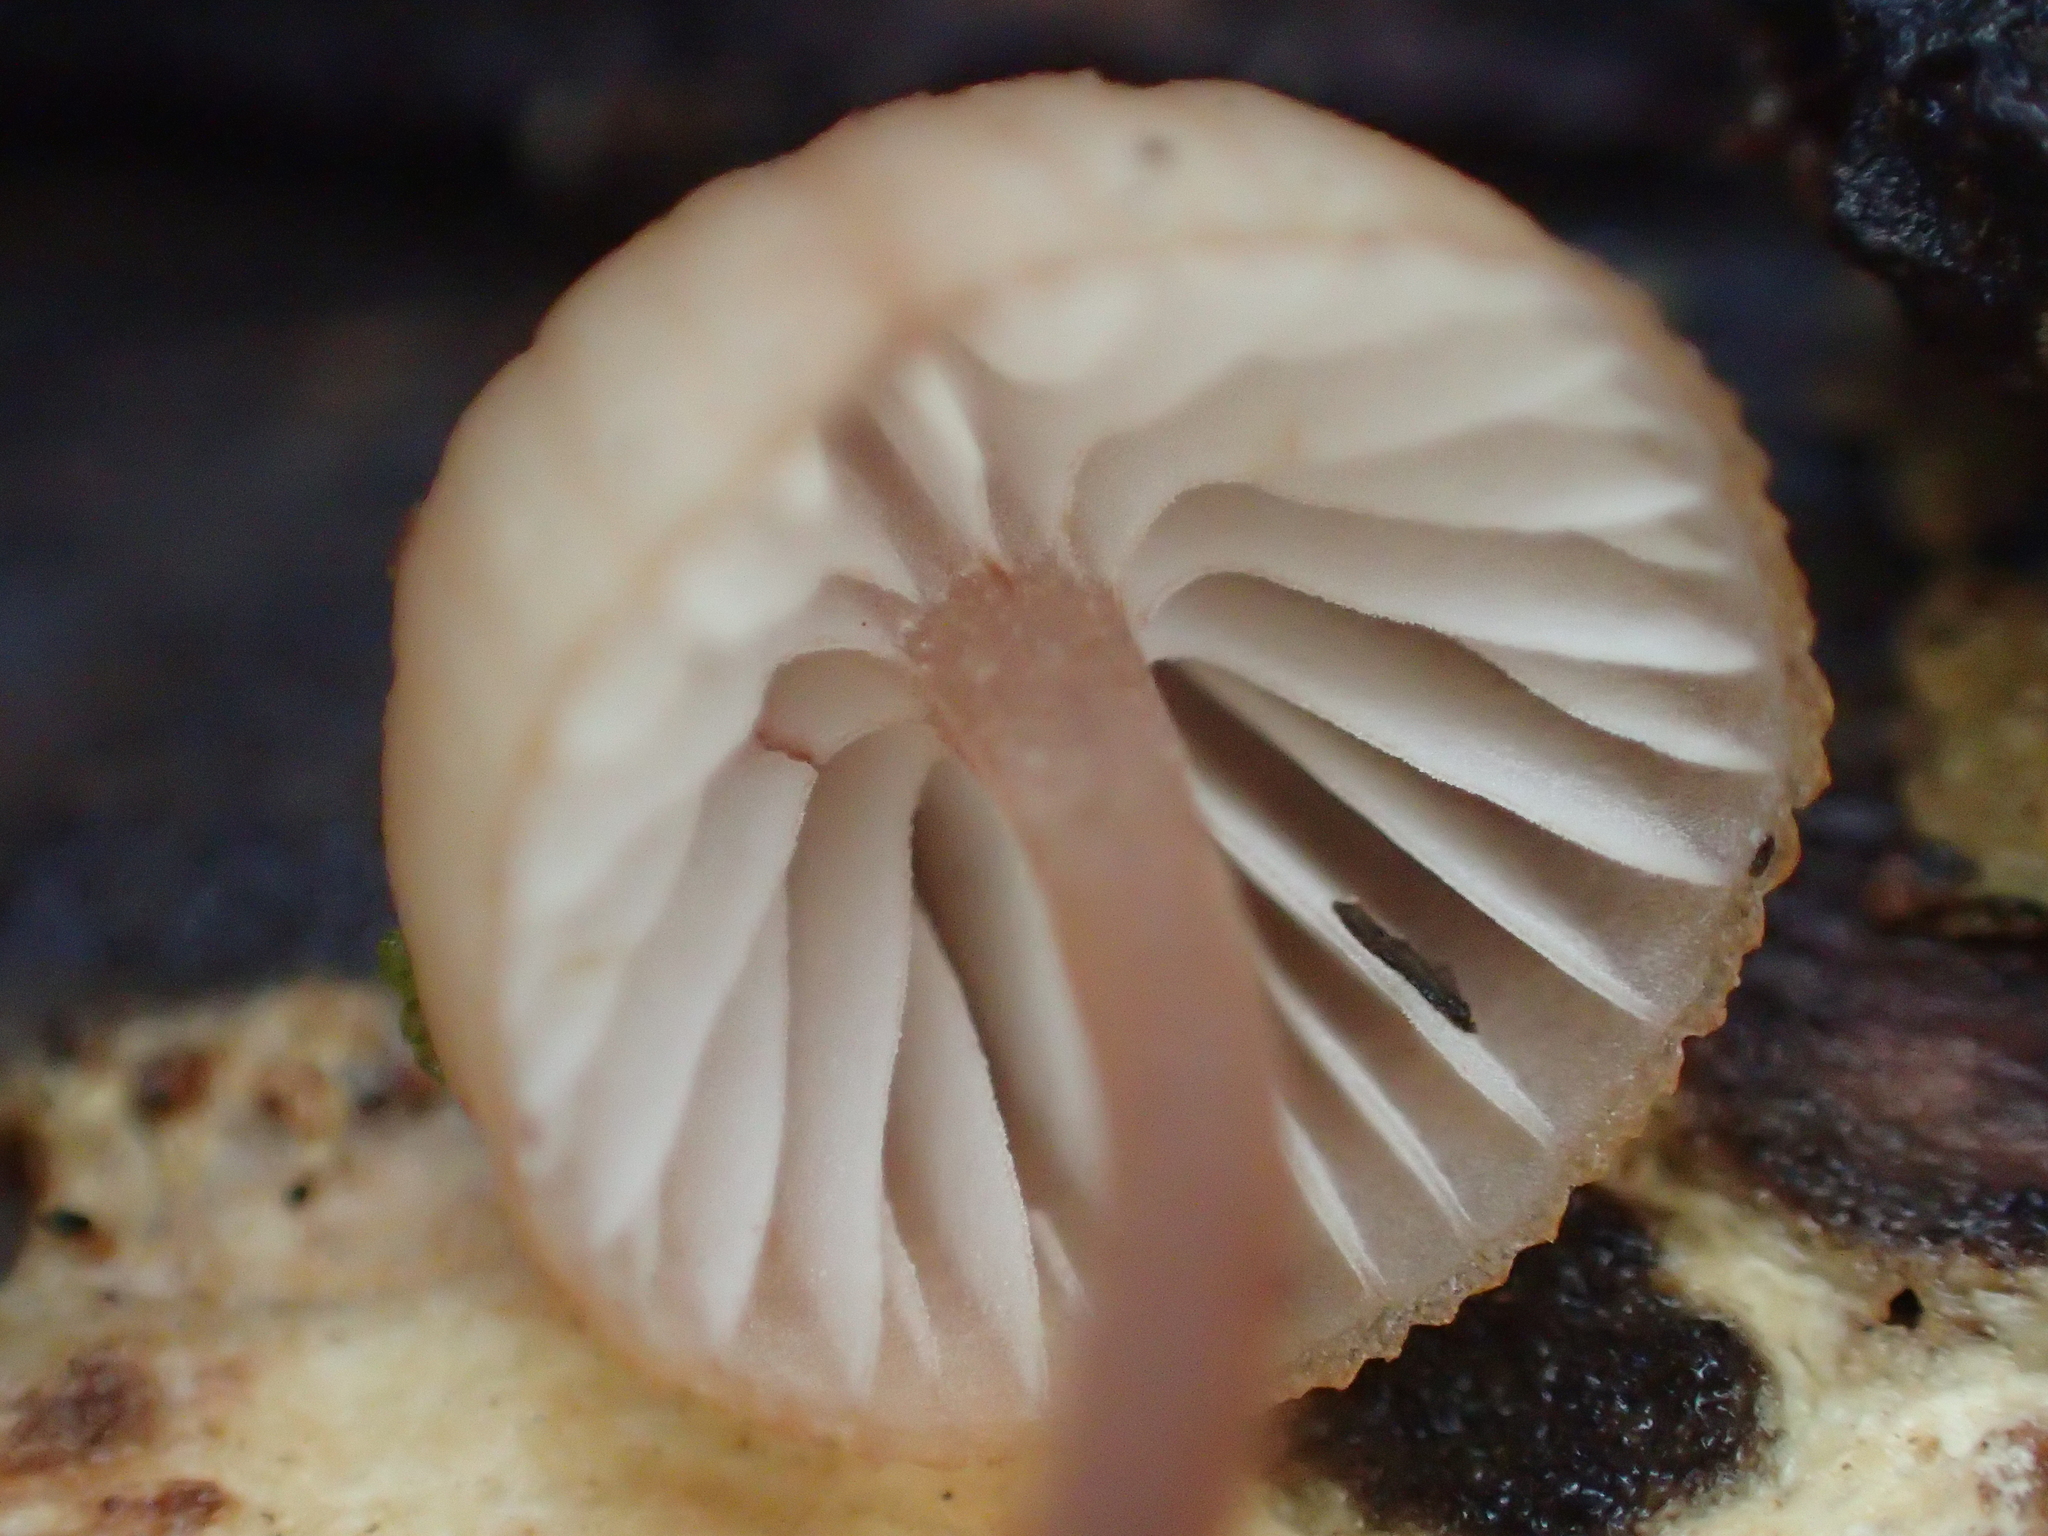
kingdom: Fungi
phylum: Basidiomycota
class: Agaricomycetes
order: Agaricales
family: Mycenaceae
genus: Mycena
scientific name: Mycena mariae
